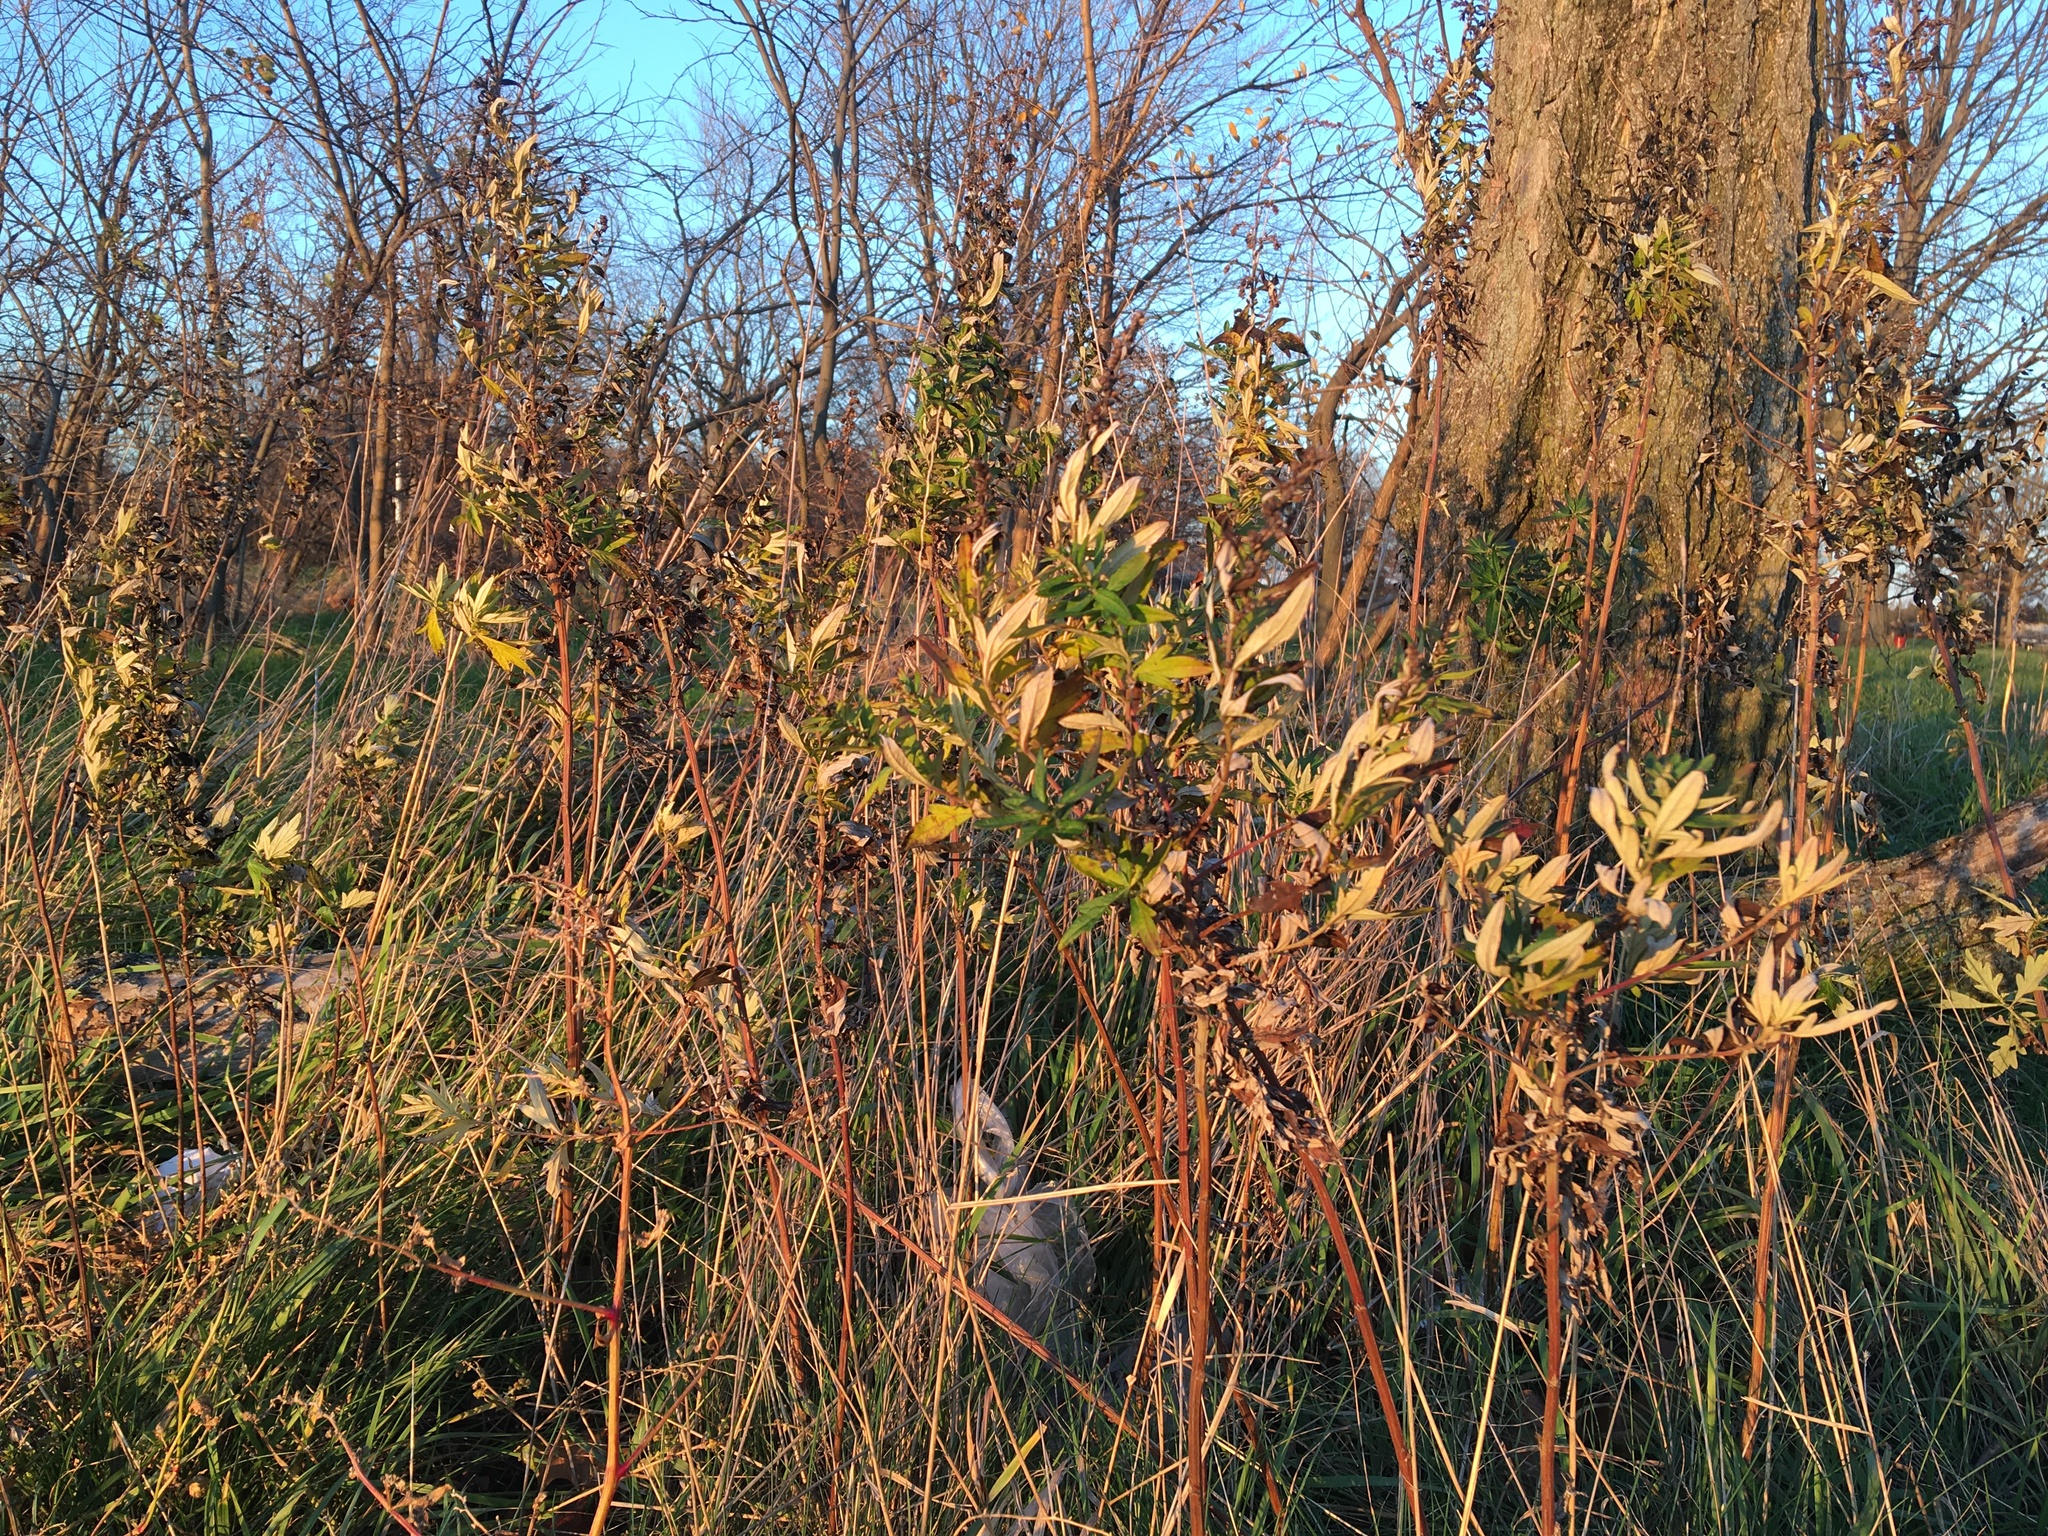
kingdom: Plantae
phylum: Tracheophyta
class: Magnoliopsida
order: Asterales
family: Asteraceae
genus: Artemisia
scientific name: Artemisia vulgaris
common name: Mugwort
